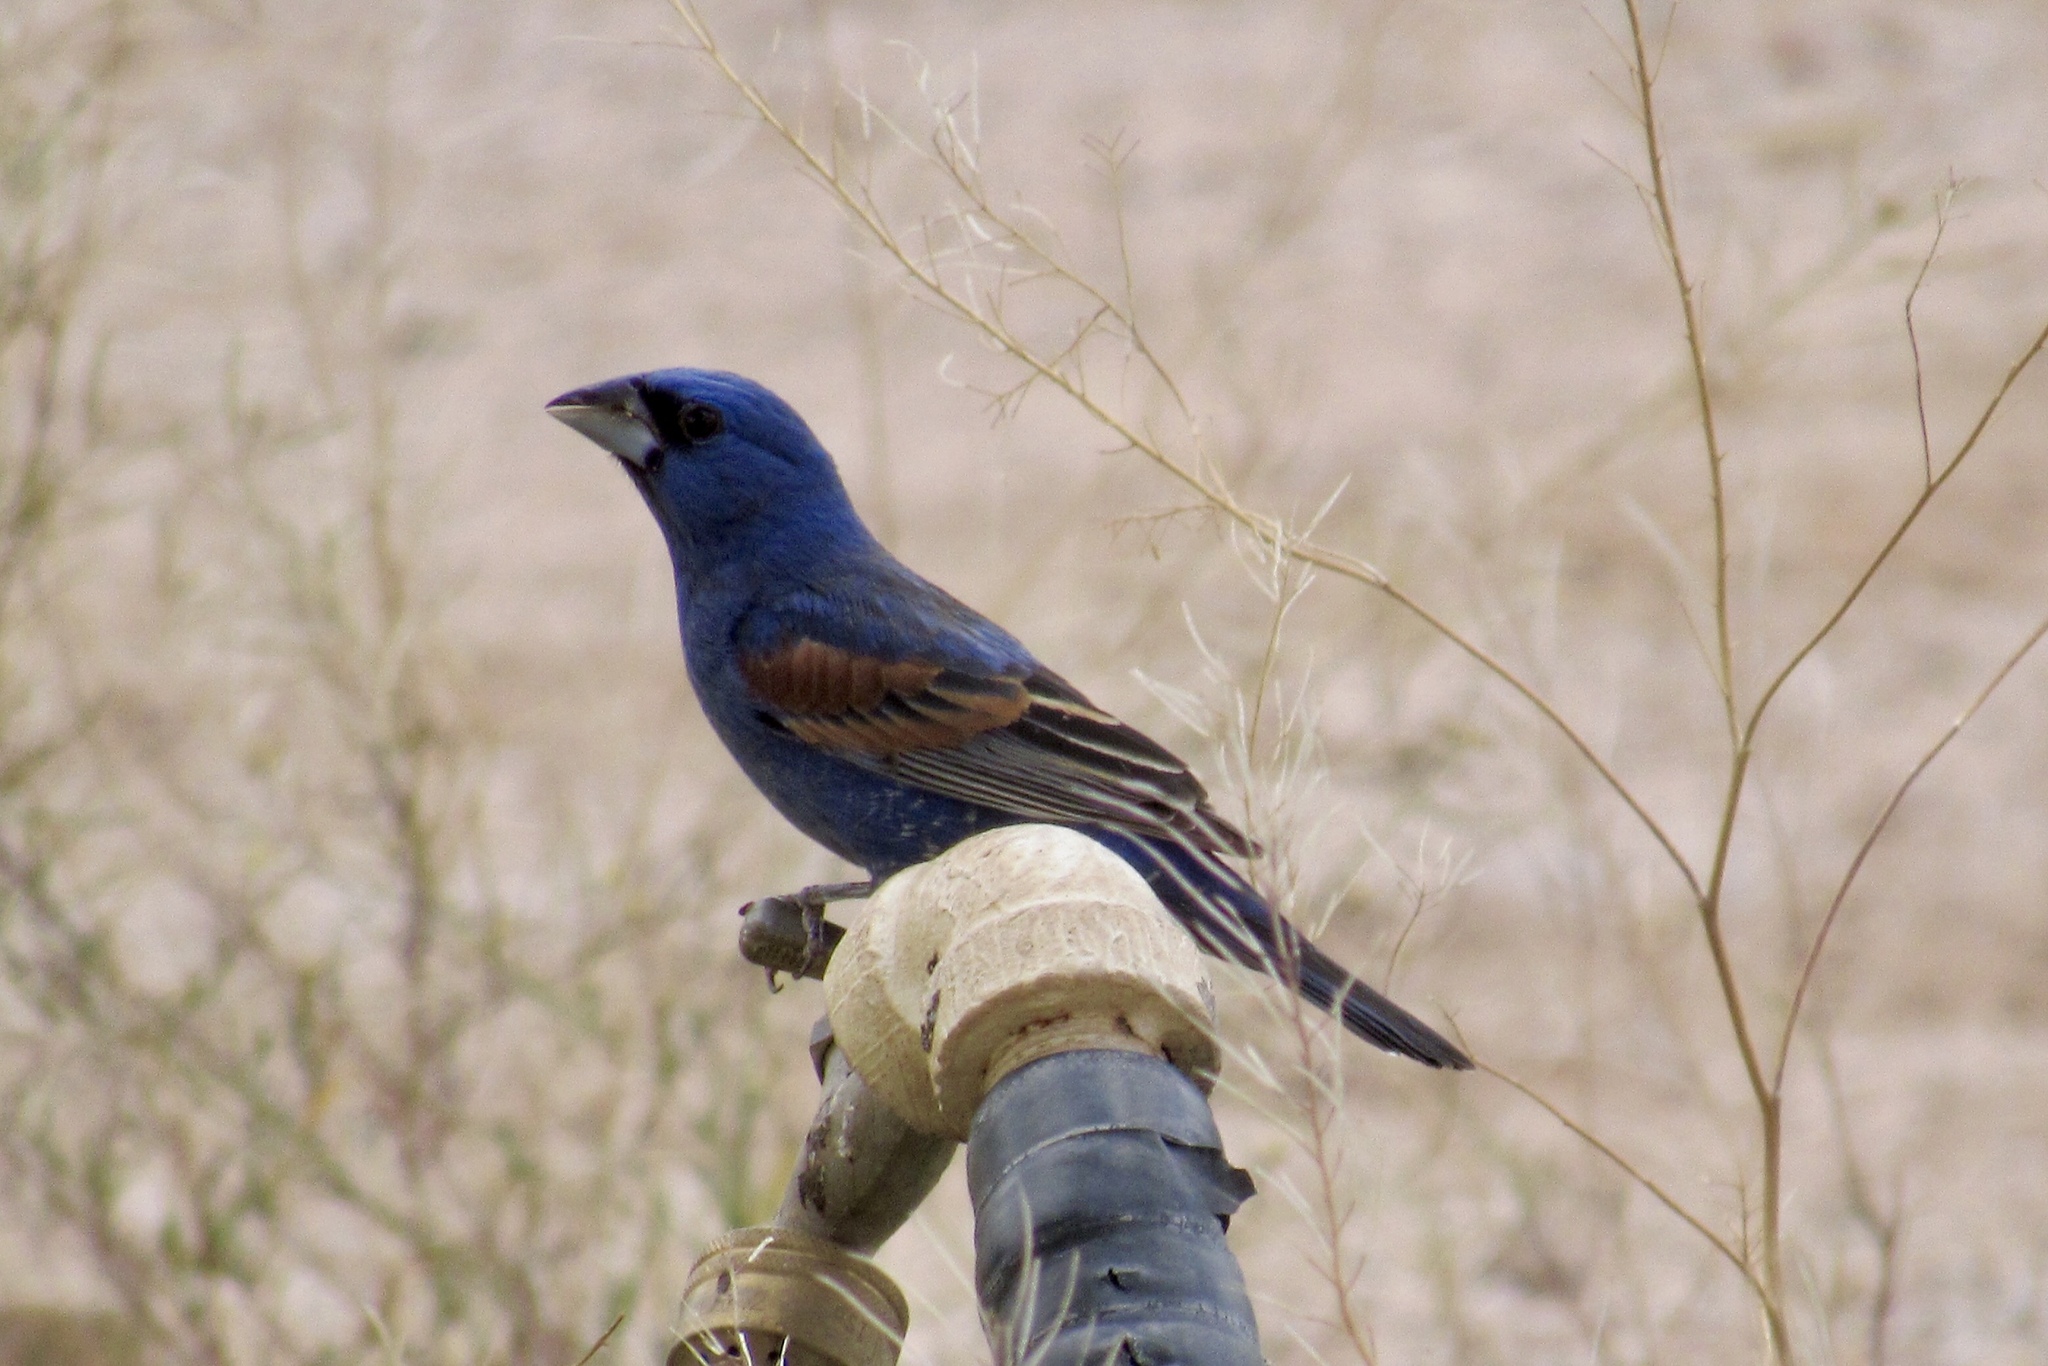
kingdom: Animalia
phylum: Chordata
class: Aves
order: Passeriformes
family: Cardinalidae
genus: Passerina
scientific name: Passerina caerulea
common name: Blue grosbeak
